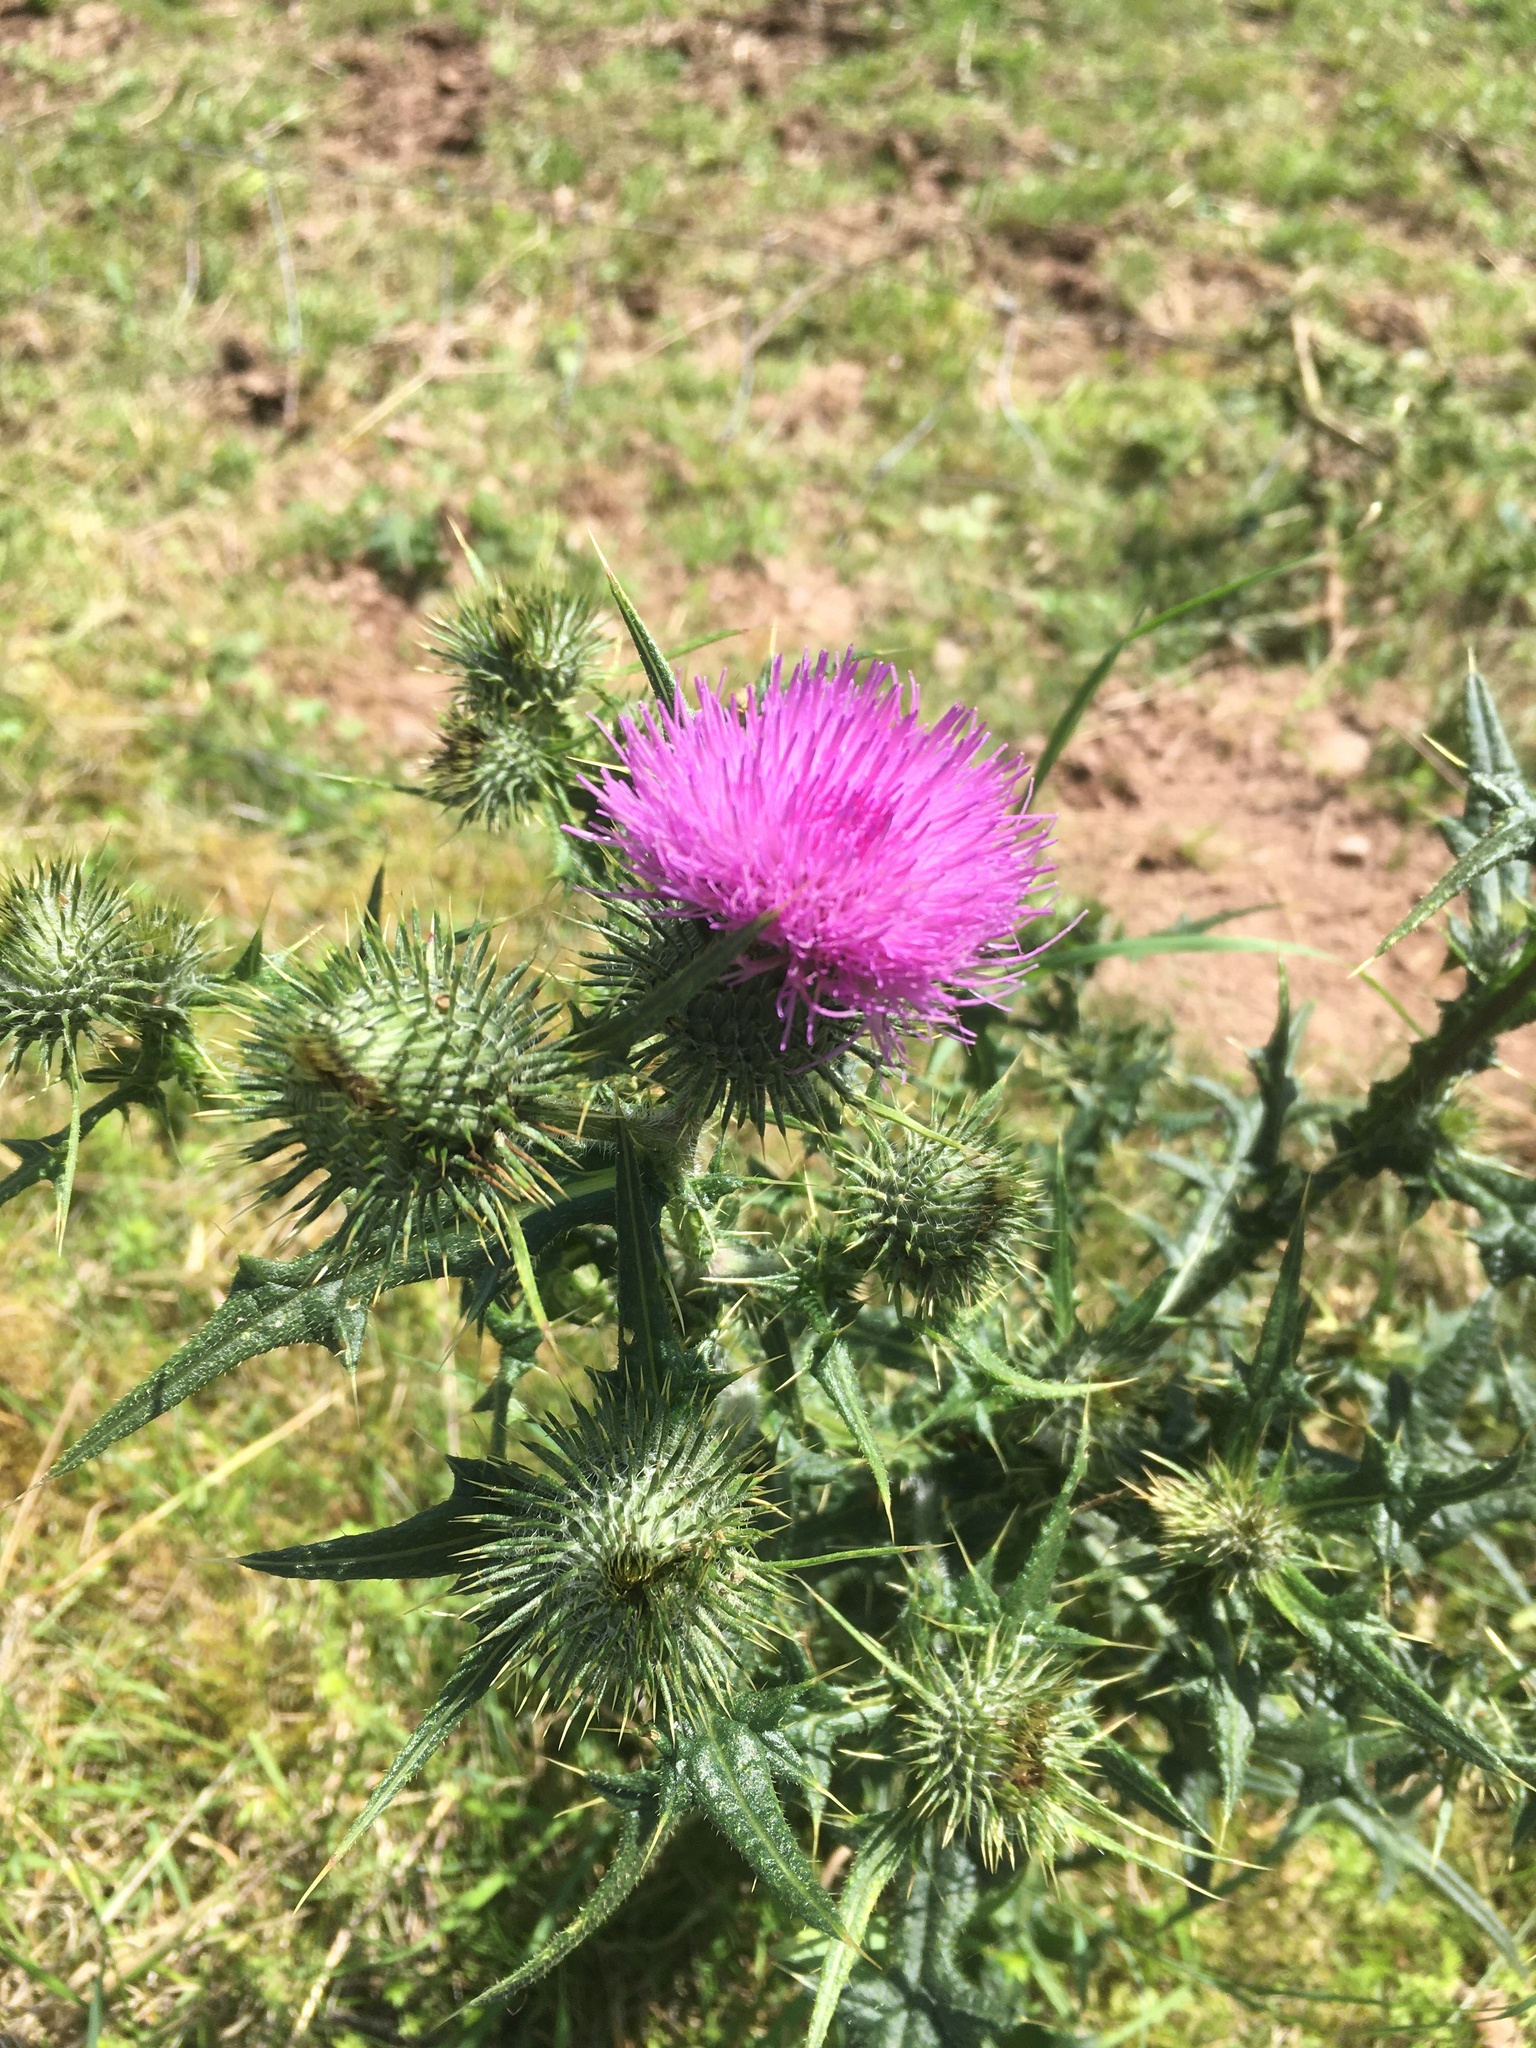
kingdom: Plantae
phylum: Tracheophyta
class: Magnoliopsida
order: Asterales
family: Asteraceae
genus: Cirsium
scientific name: Cirsium vulgare
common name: Bull thistle
